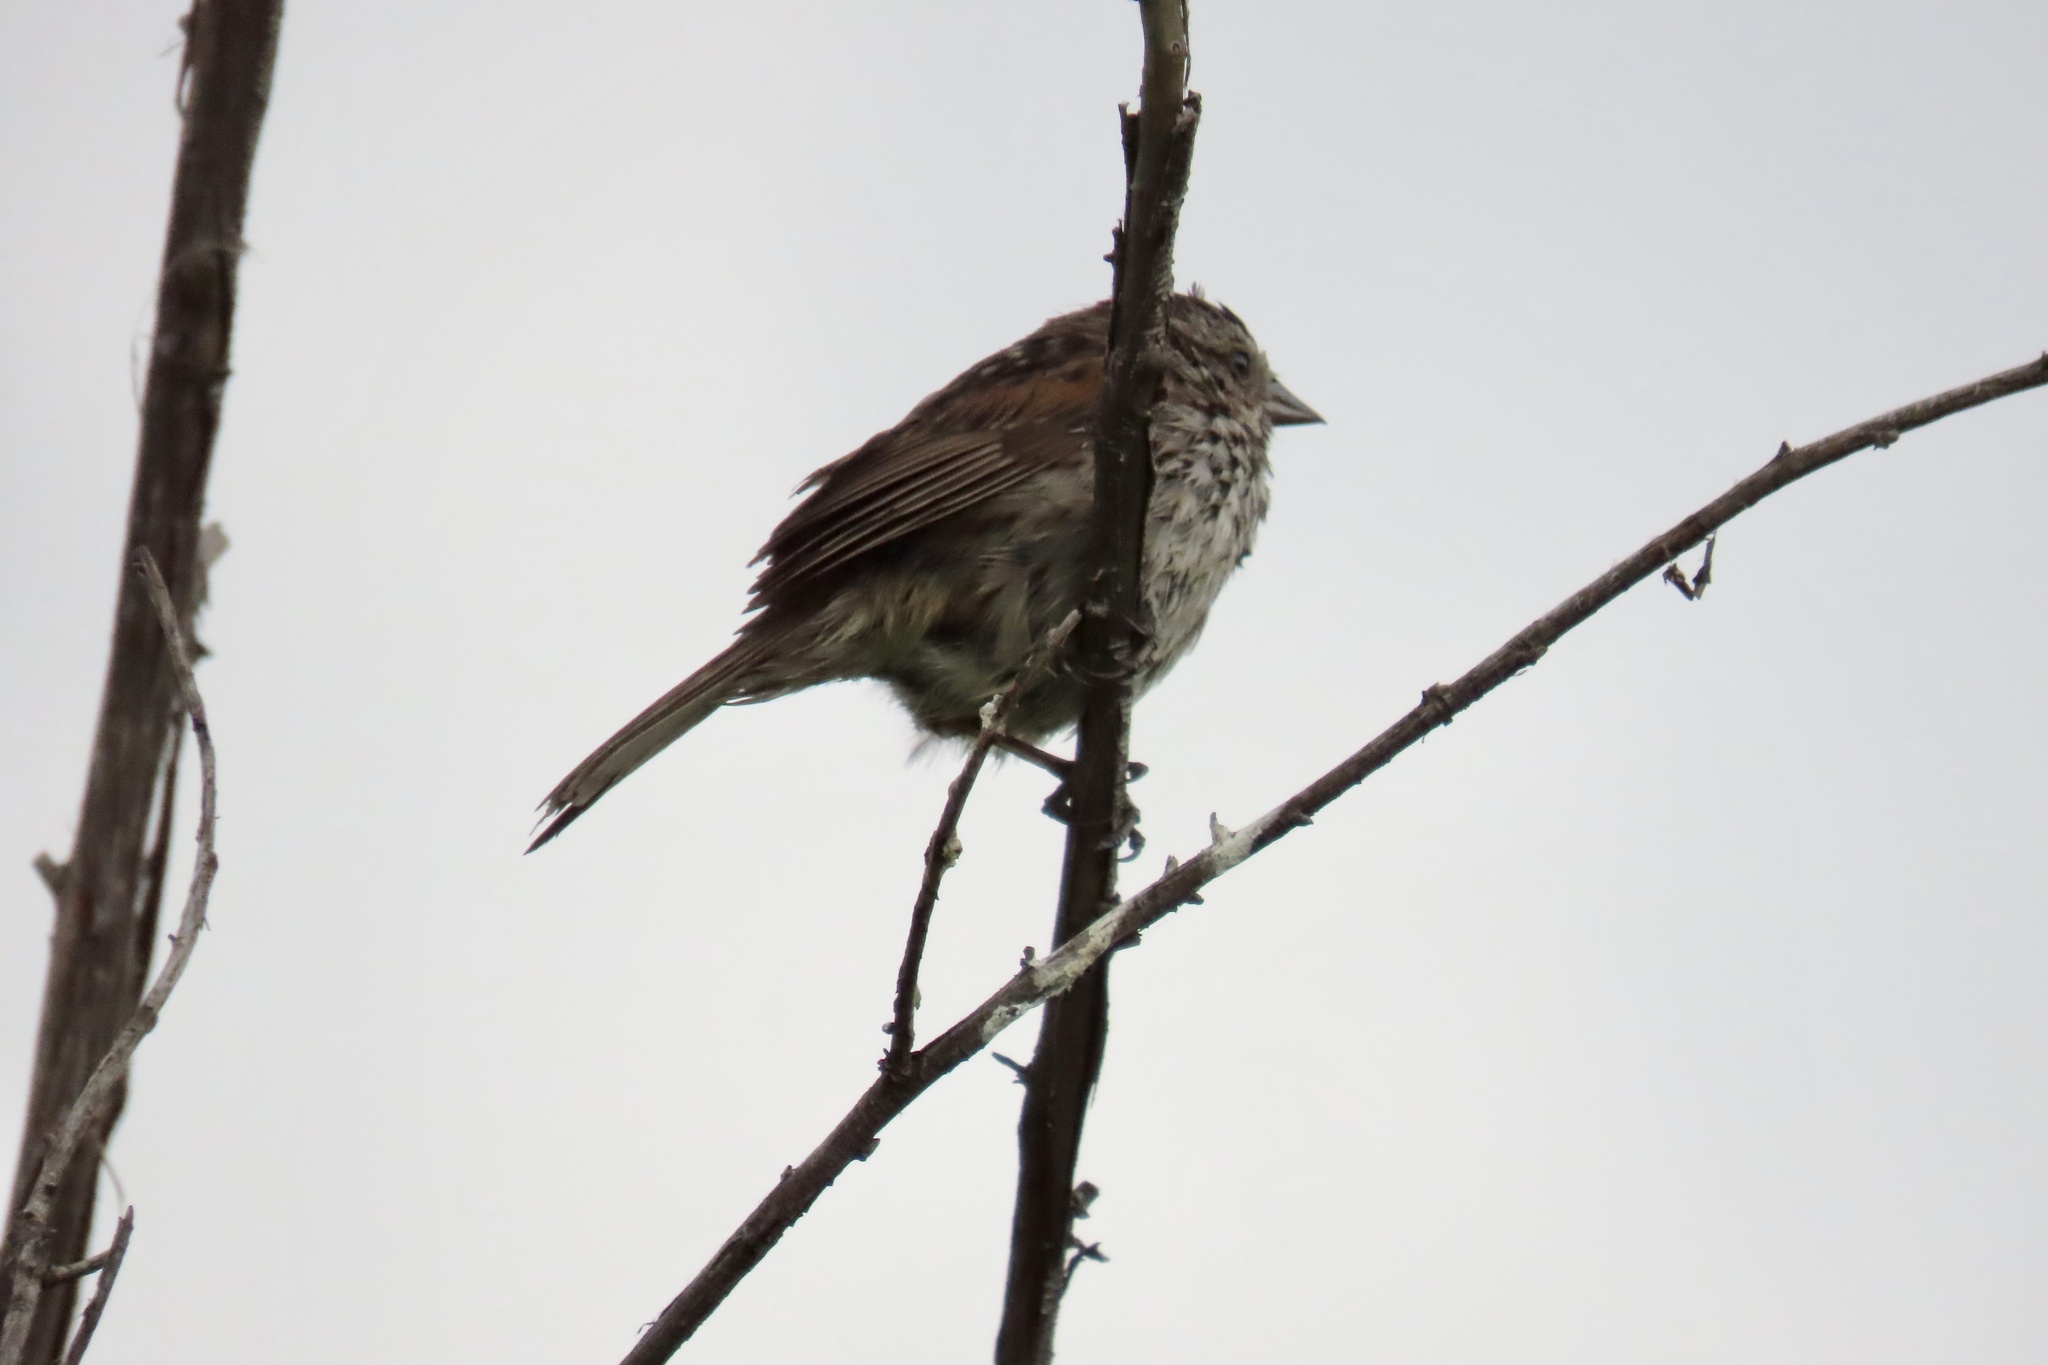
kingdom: Animalia
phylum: Chordata
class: Aves
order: Passeriformes
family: Passerellidae
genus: Melospiza
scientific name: Melospiza melodia
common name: Song sparrow
